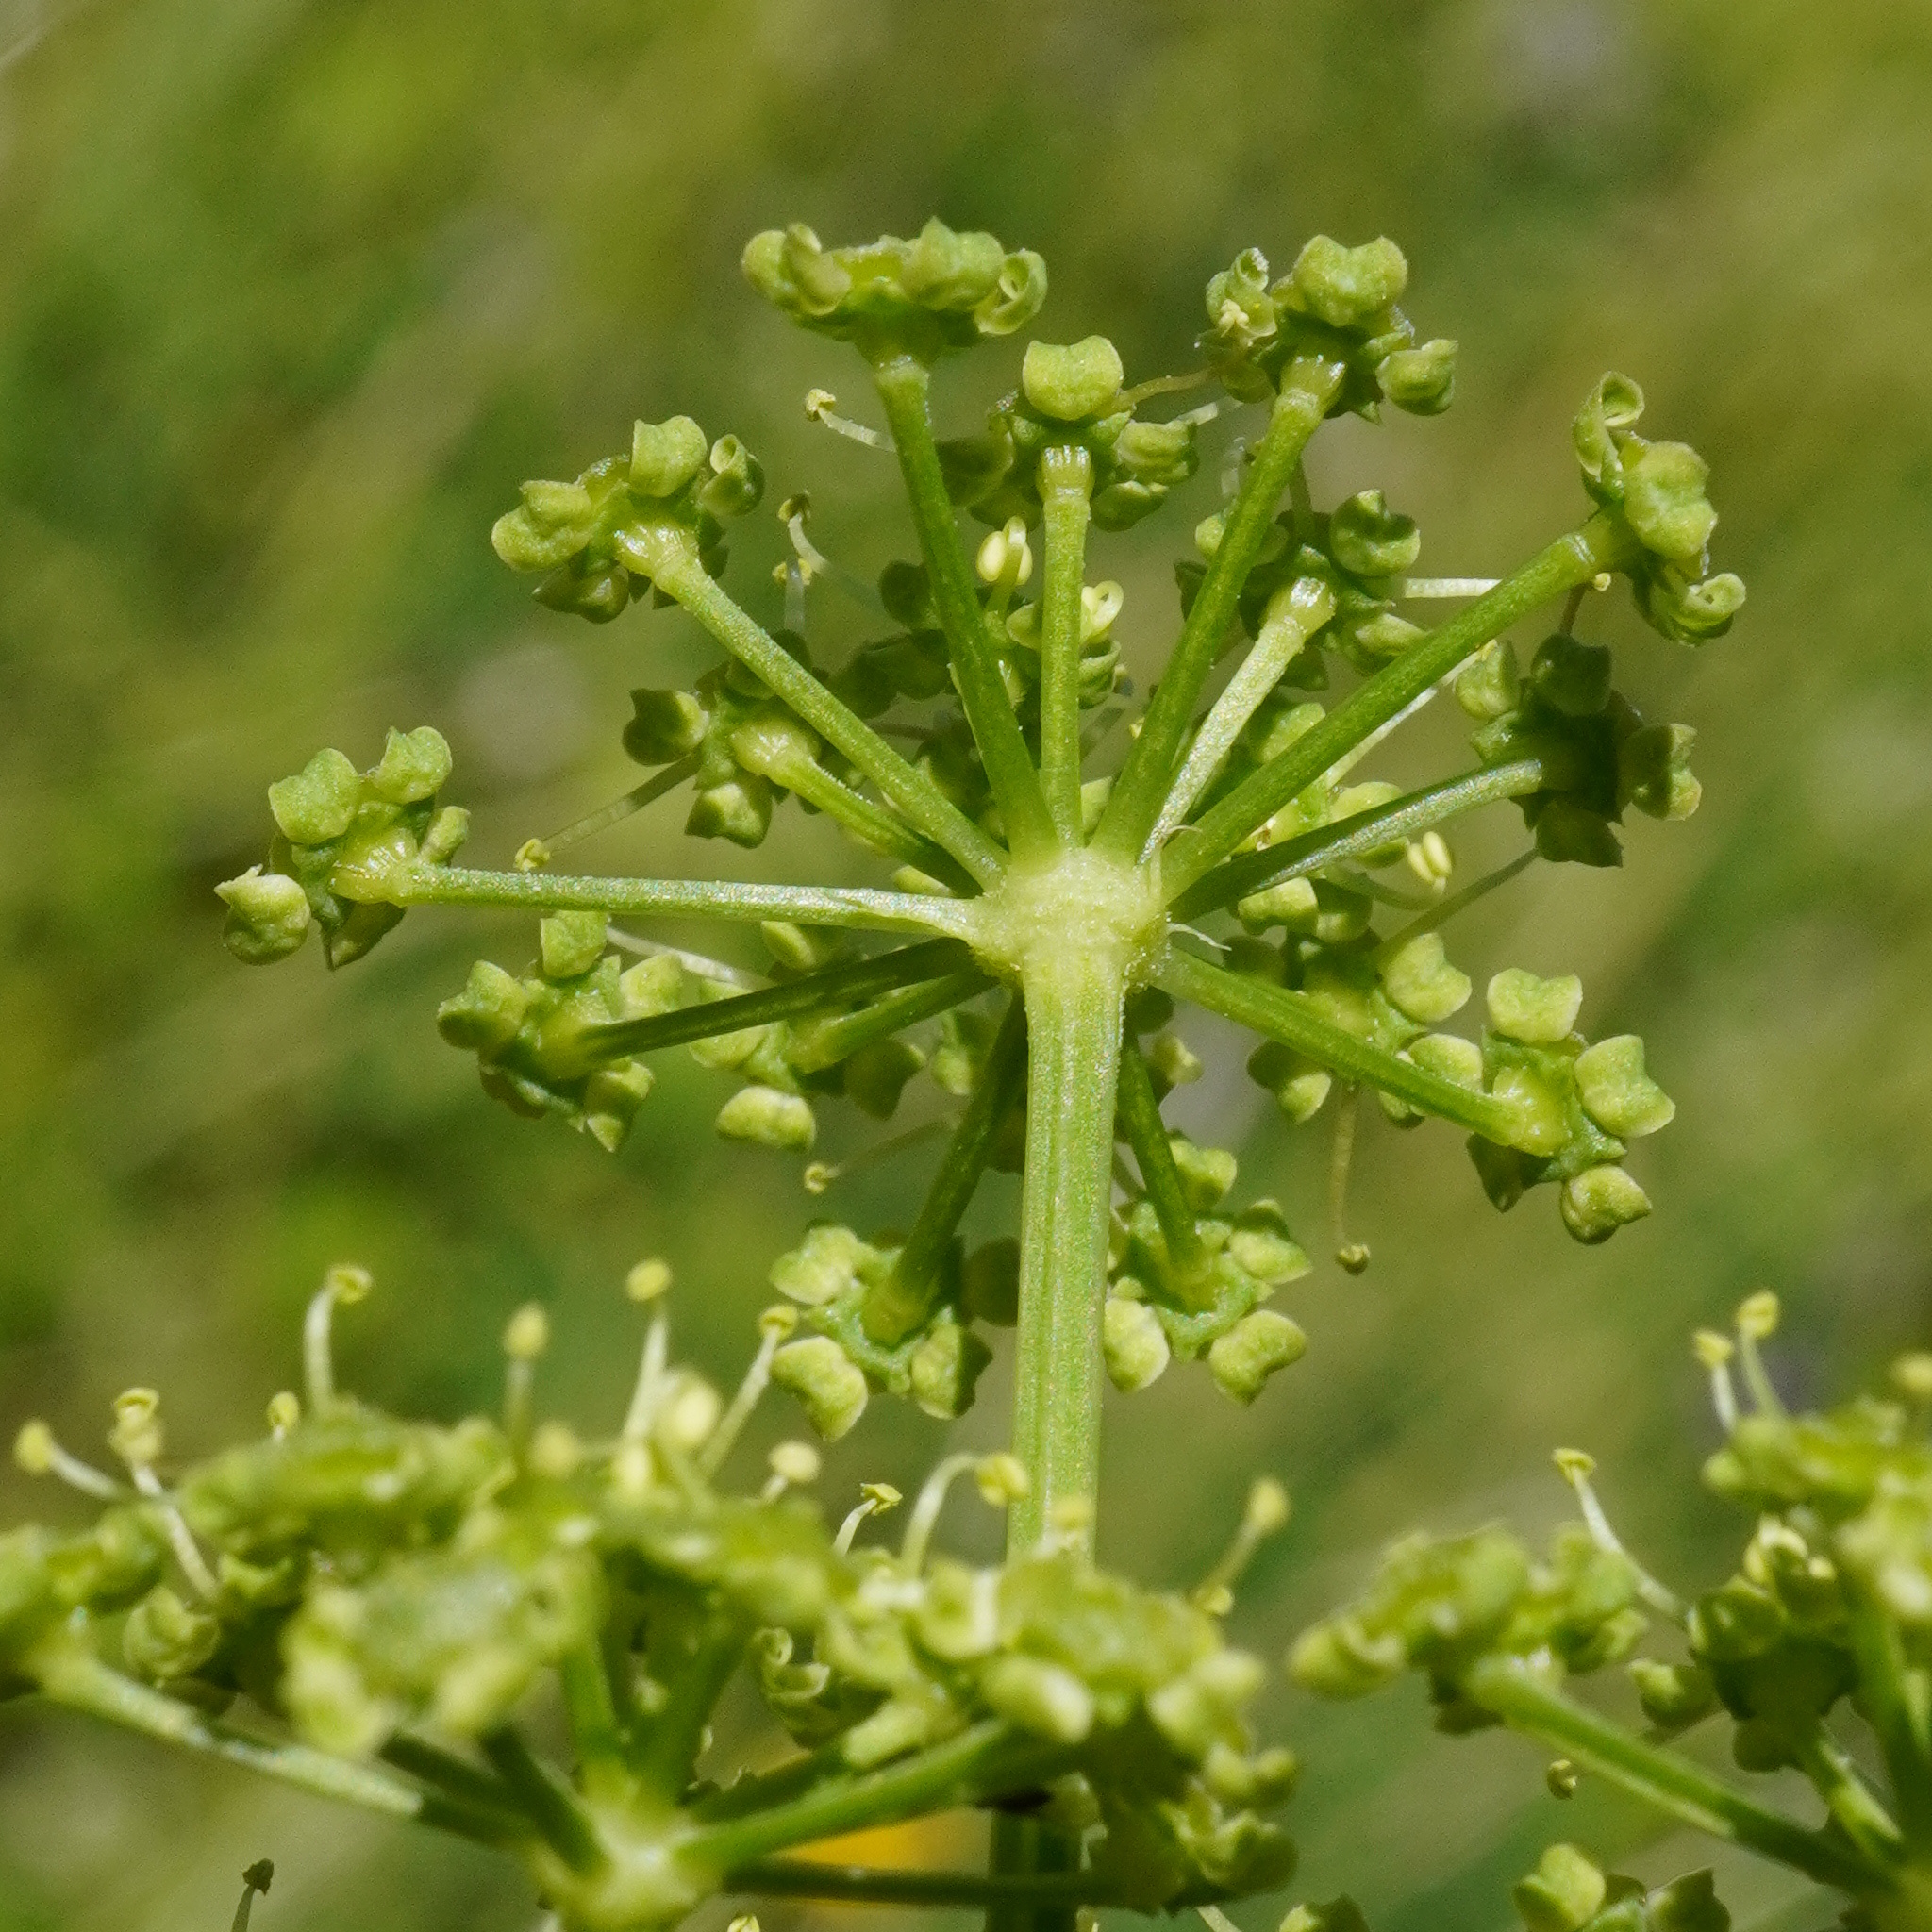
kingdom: Plantae
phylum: Tracheophyta
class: Magnoliopsida
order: Apiales
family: Apiaceae
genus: Angelica
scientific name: Angelica archangelica
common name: Garden angelica
